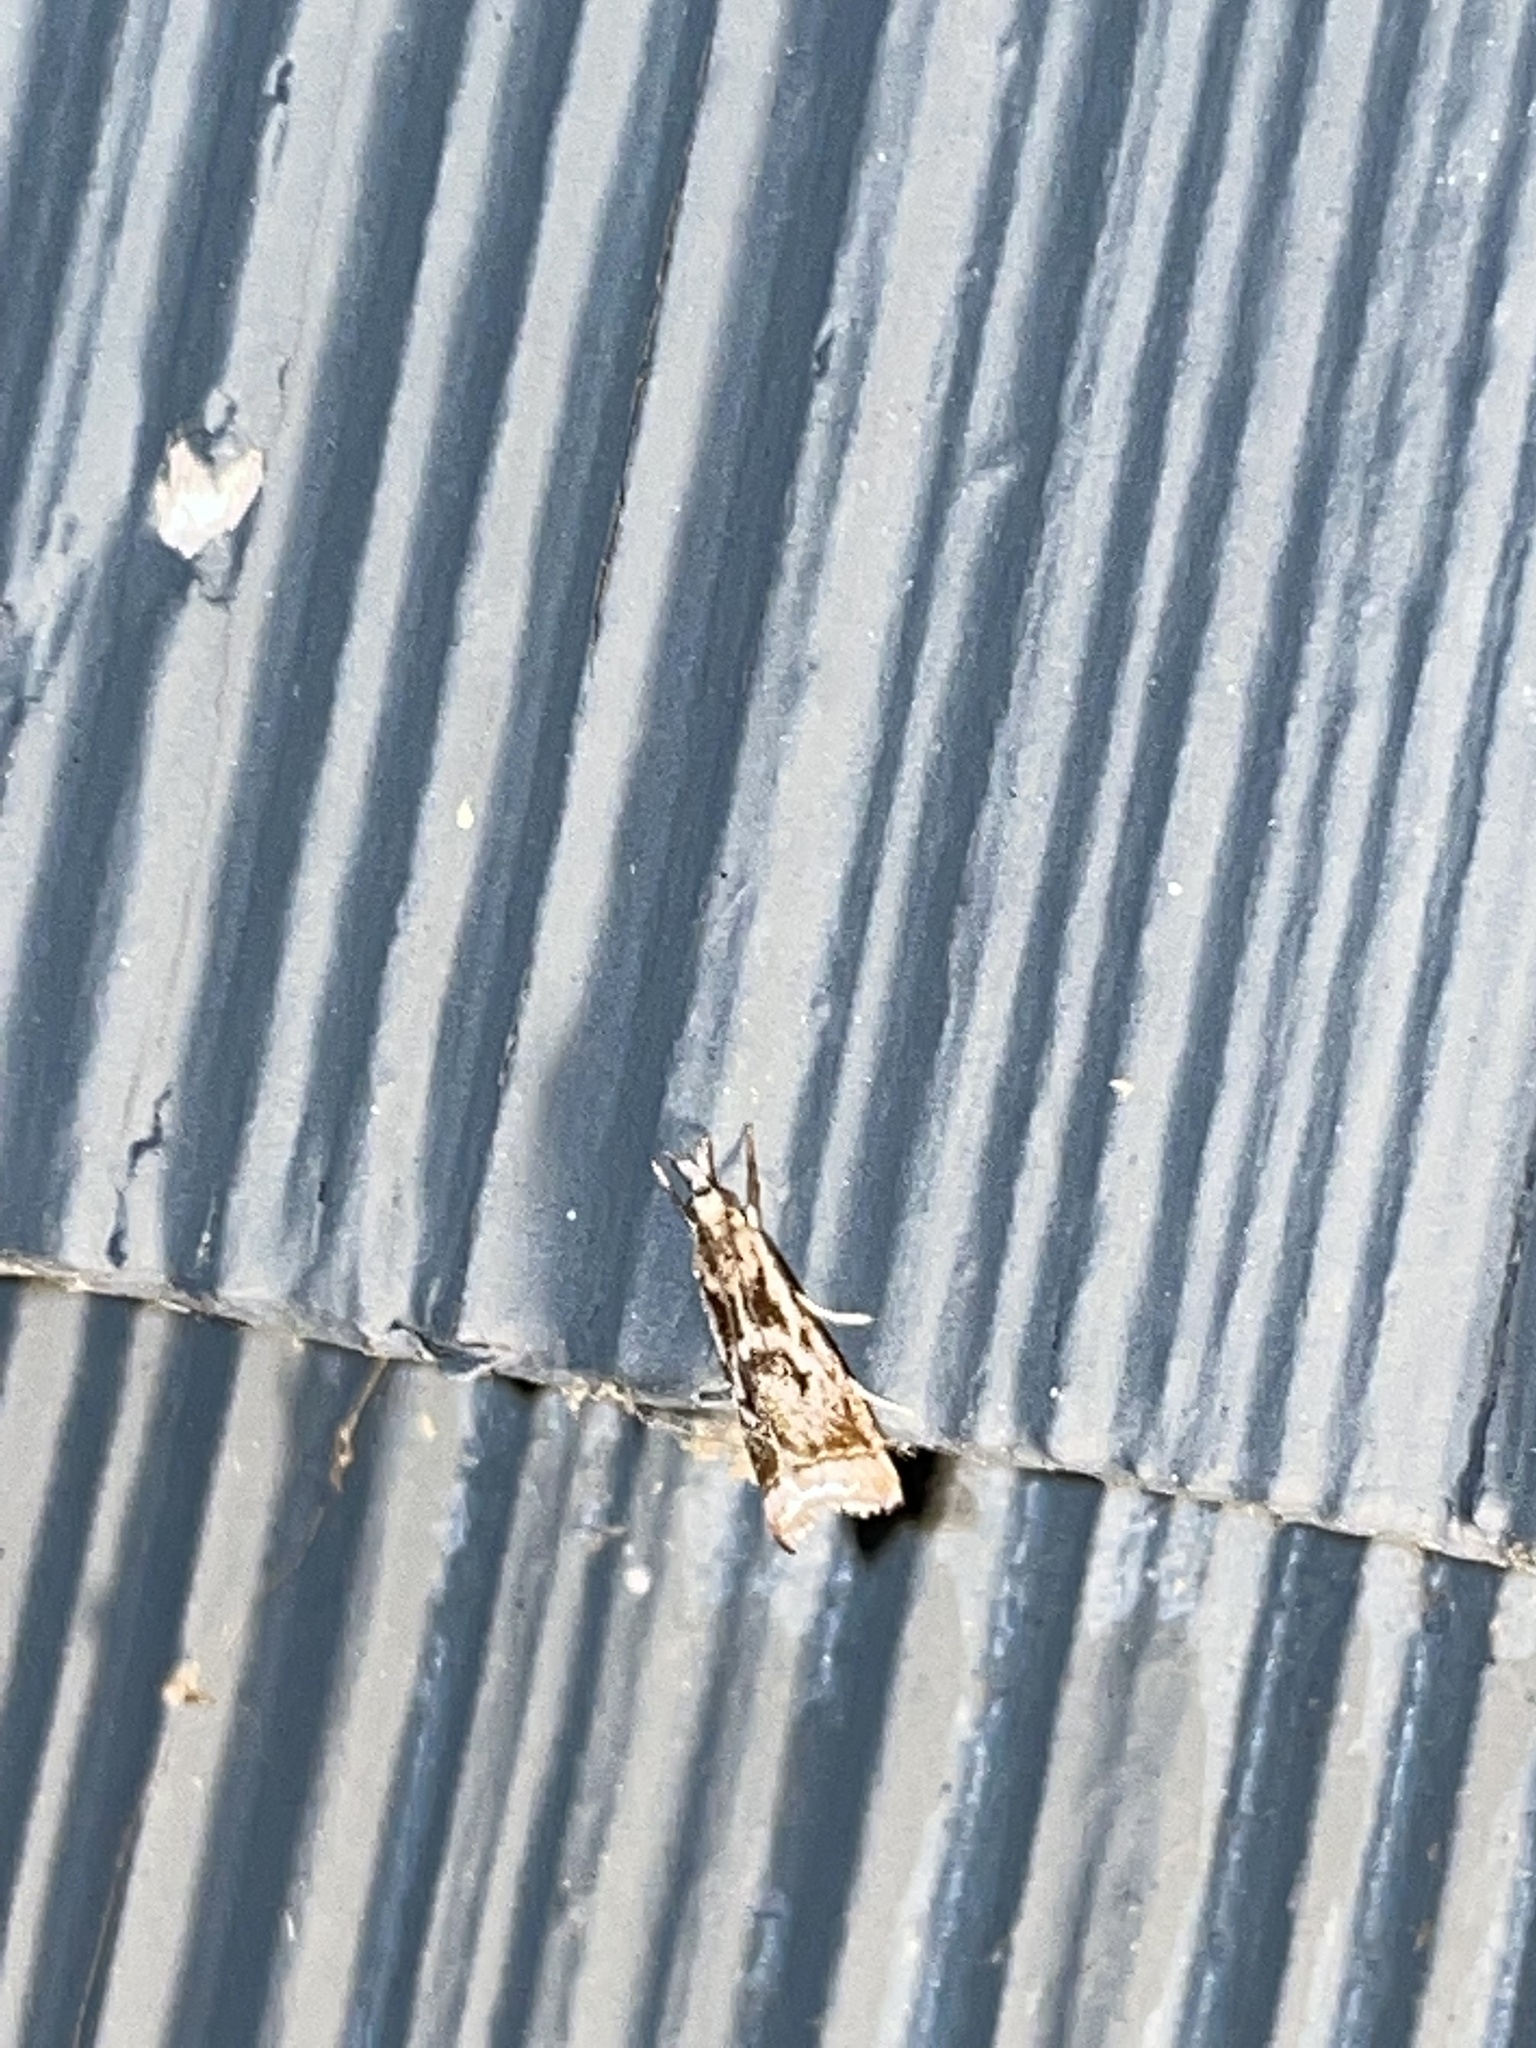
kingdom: Animalia
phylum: Arthropoda
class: Insecta
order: Lepidoptera
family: Crambidae
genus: Microcrambus
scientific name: Microcrambus elegans
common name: Elegant grass-veneer
